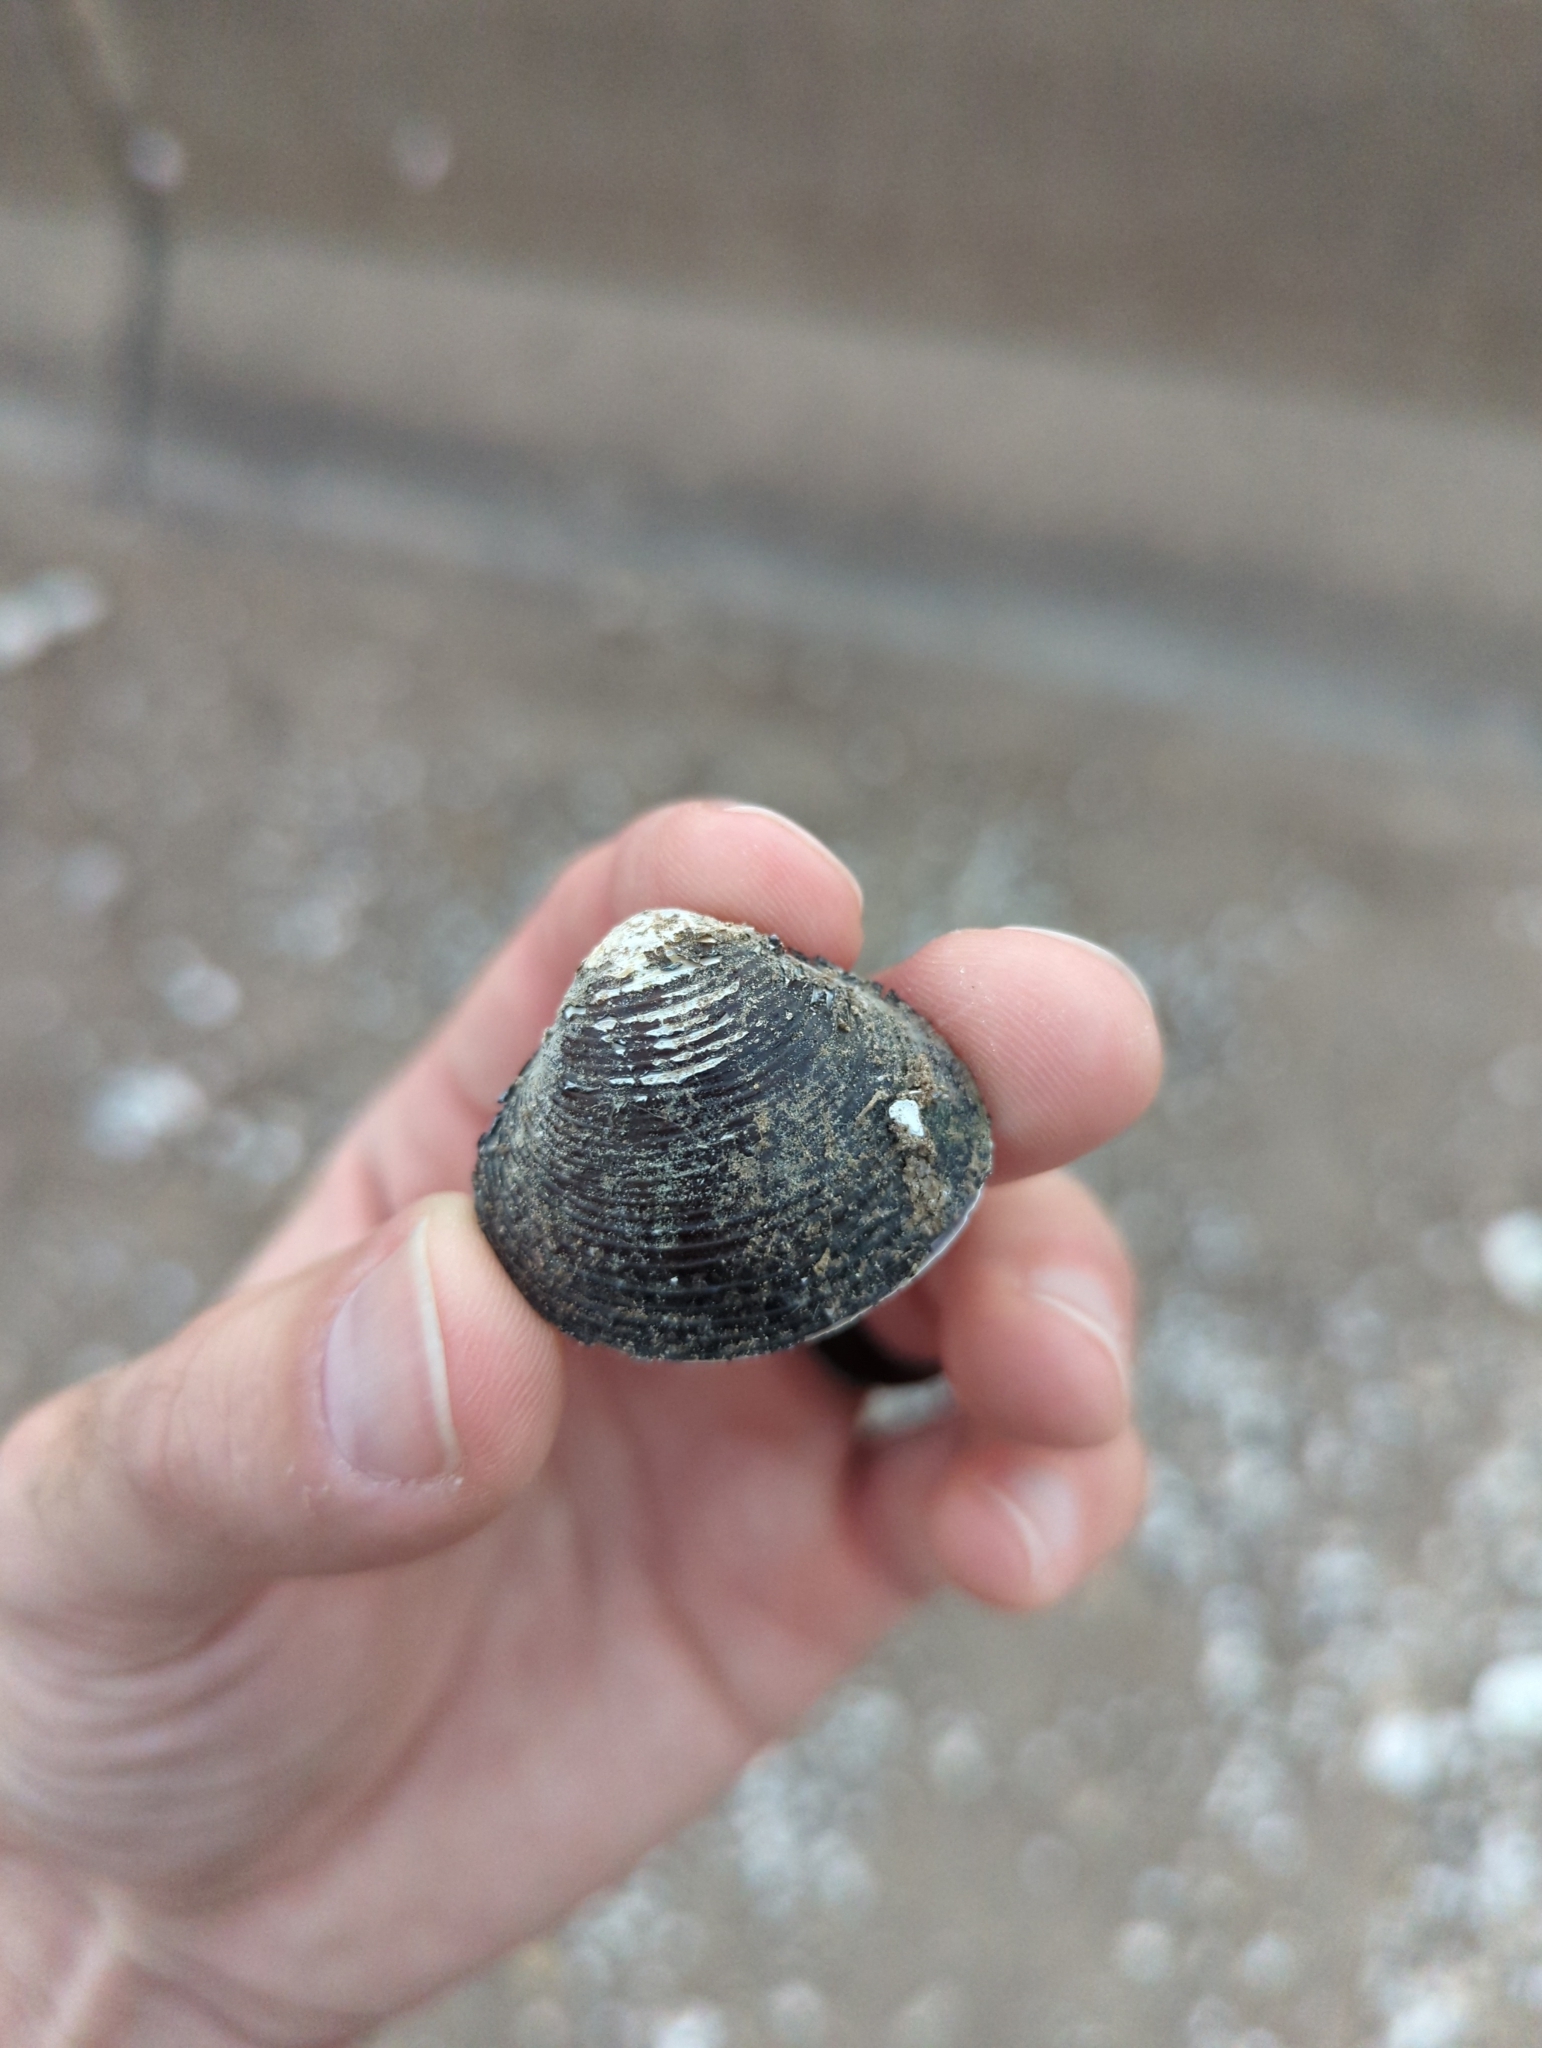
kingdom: Animalia
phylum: Mollusca
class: Bivalvia
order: Venerida
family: Cyrenidae
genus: Corbicula
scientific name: Corbicula fluminea
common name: Asian clam
